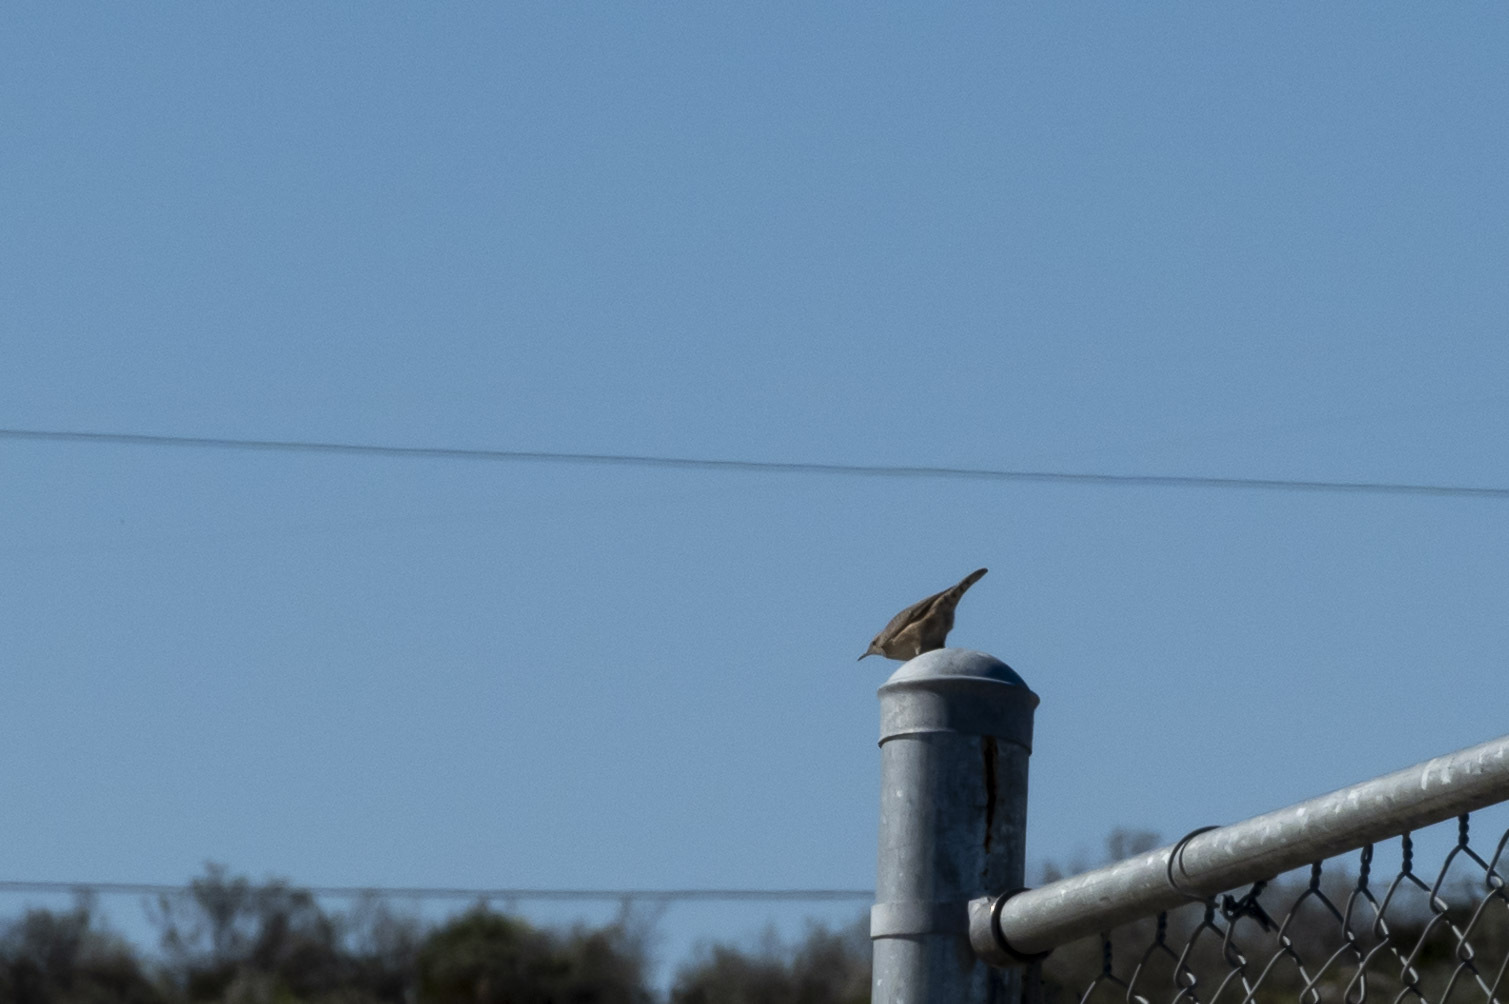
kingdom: Animalia
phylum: Chordata
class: Aves
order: Passeriformes
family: Troglodytidae
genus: Salpinctes
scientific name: Salpinctes obsoletus
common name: Rock wren
